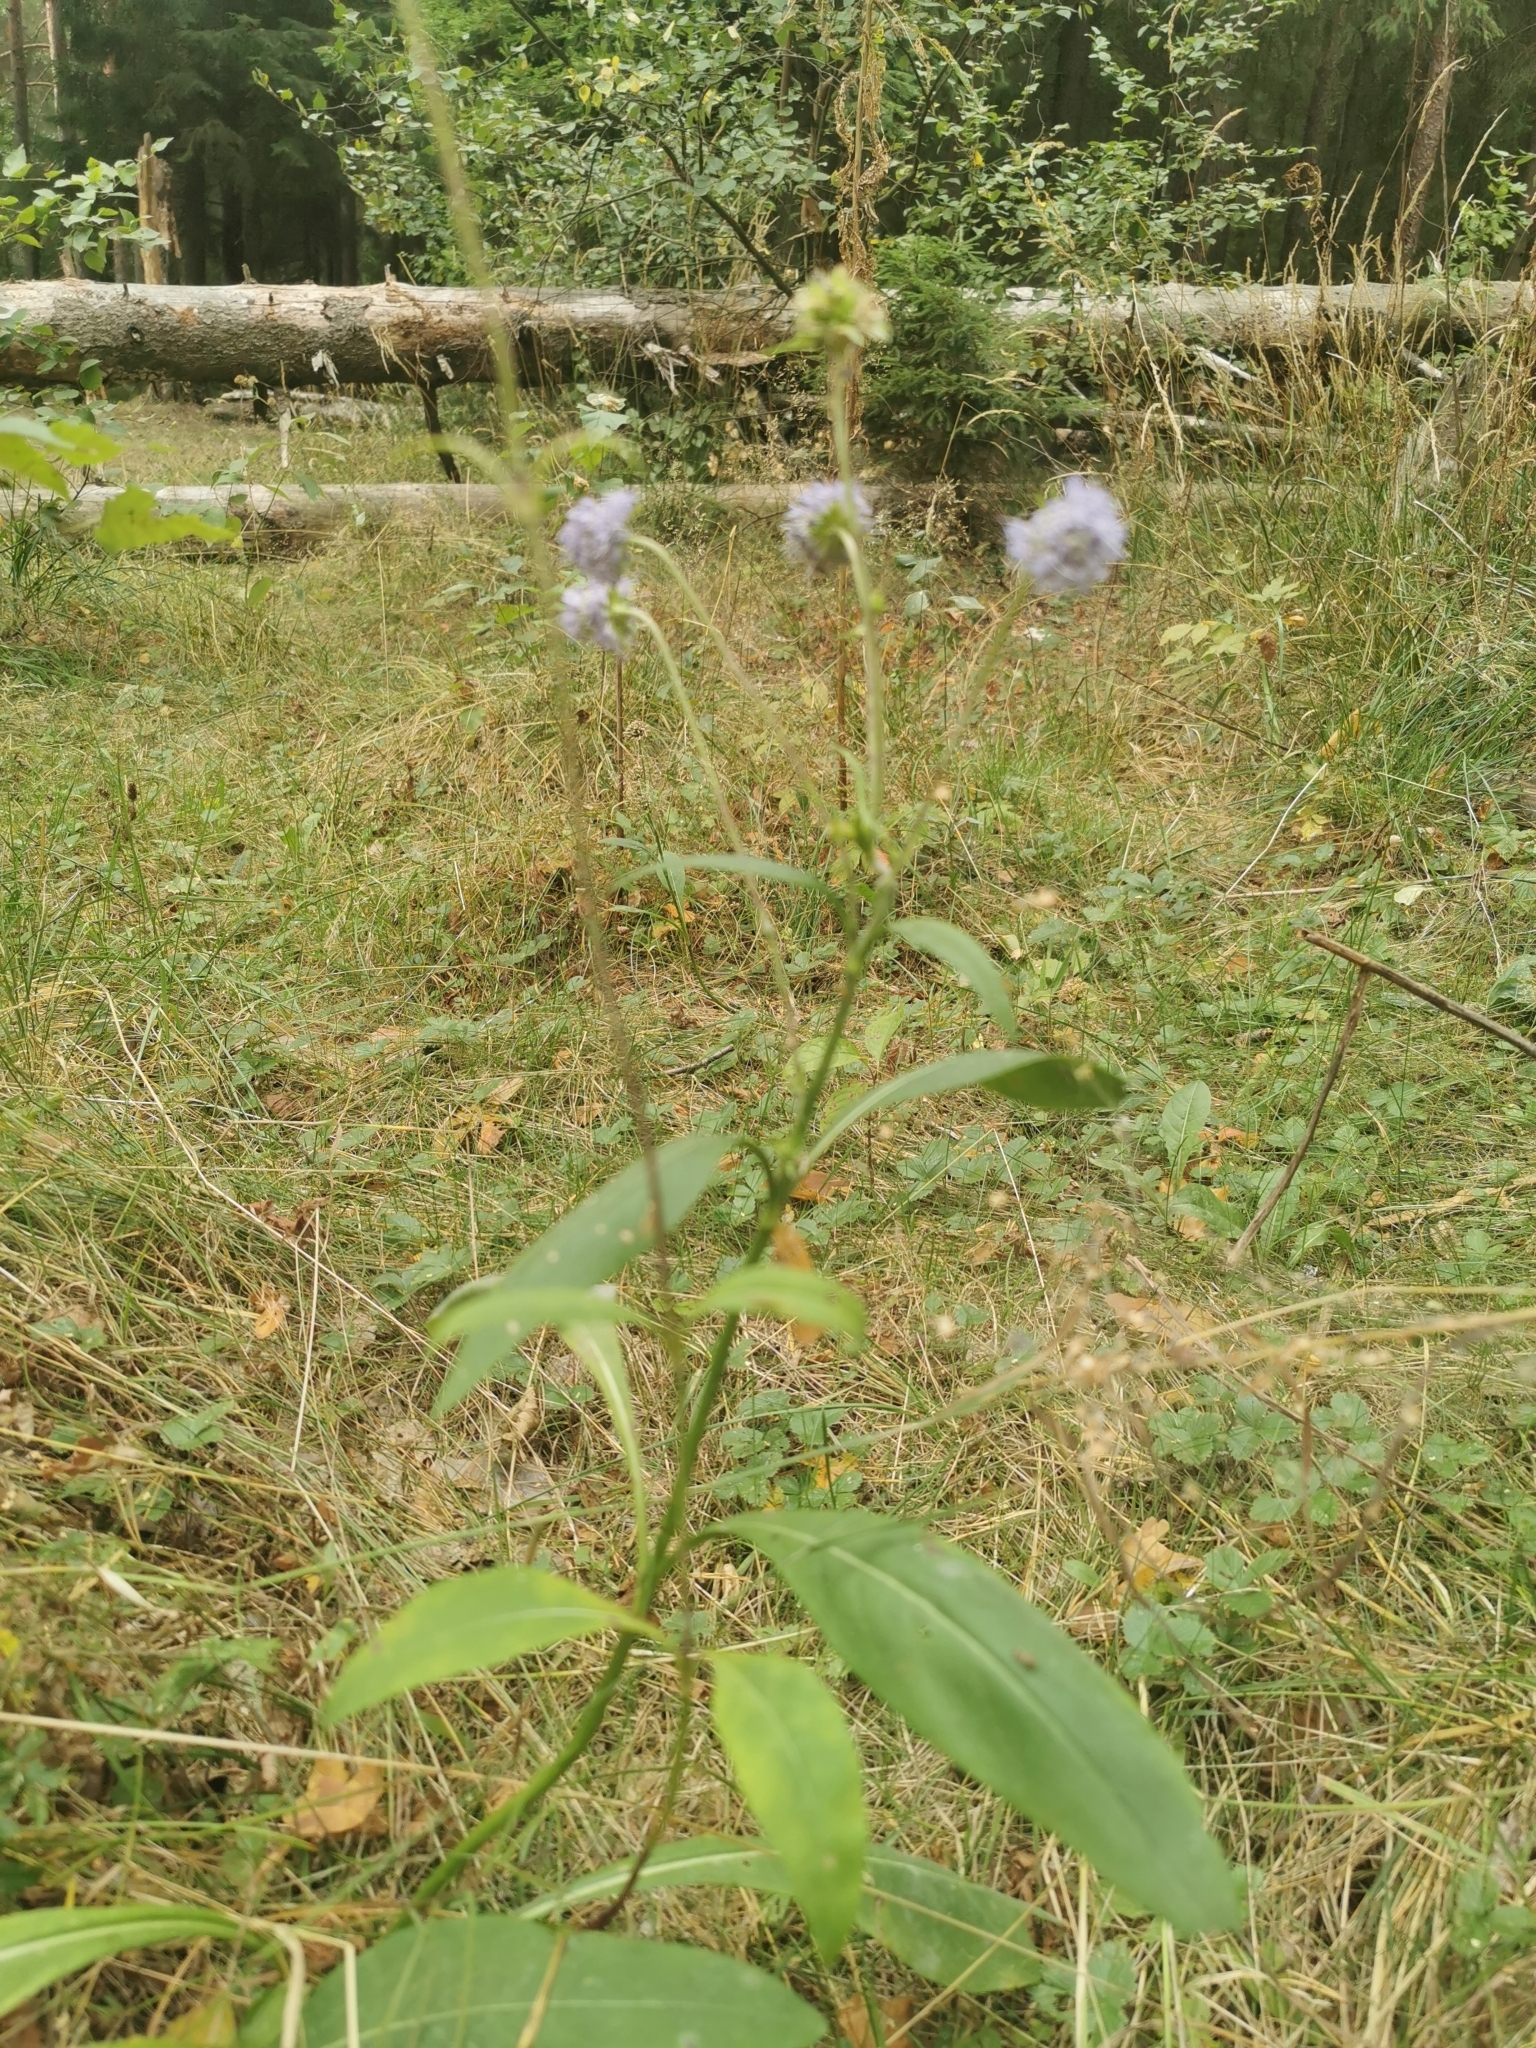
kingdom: Plantae
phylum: Tracheophyta
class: Magnoliopsida
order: Dipsacales
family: Caprifoliaceae
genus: Succisa
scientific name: Succisa pratensis
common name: Devil's-bit
